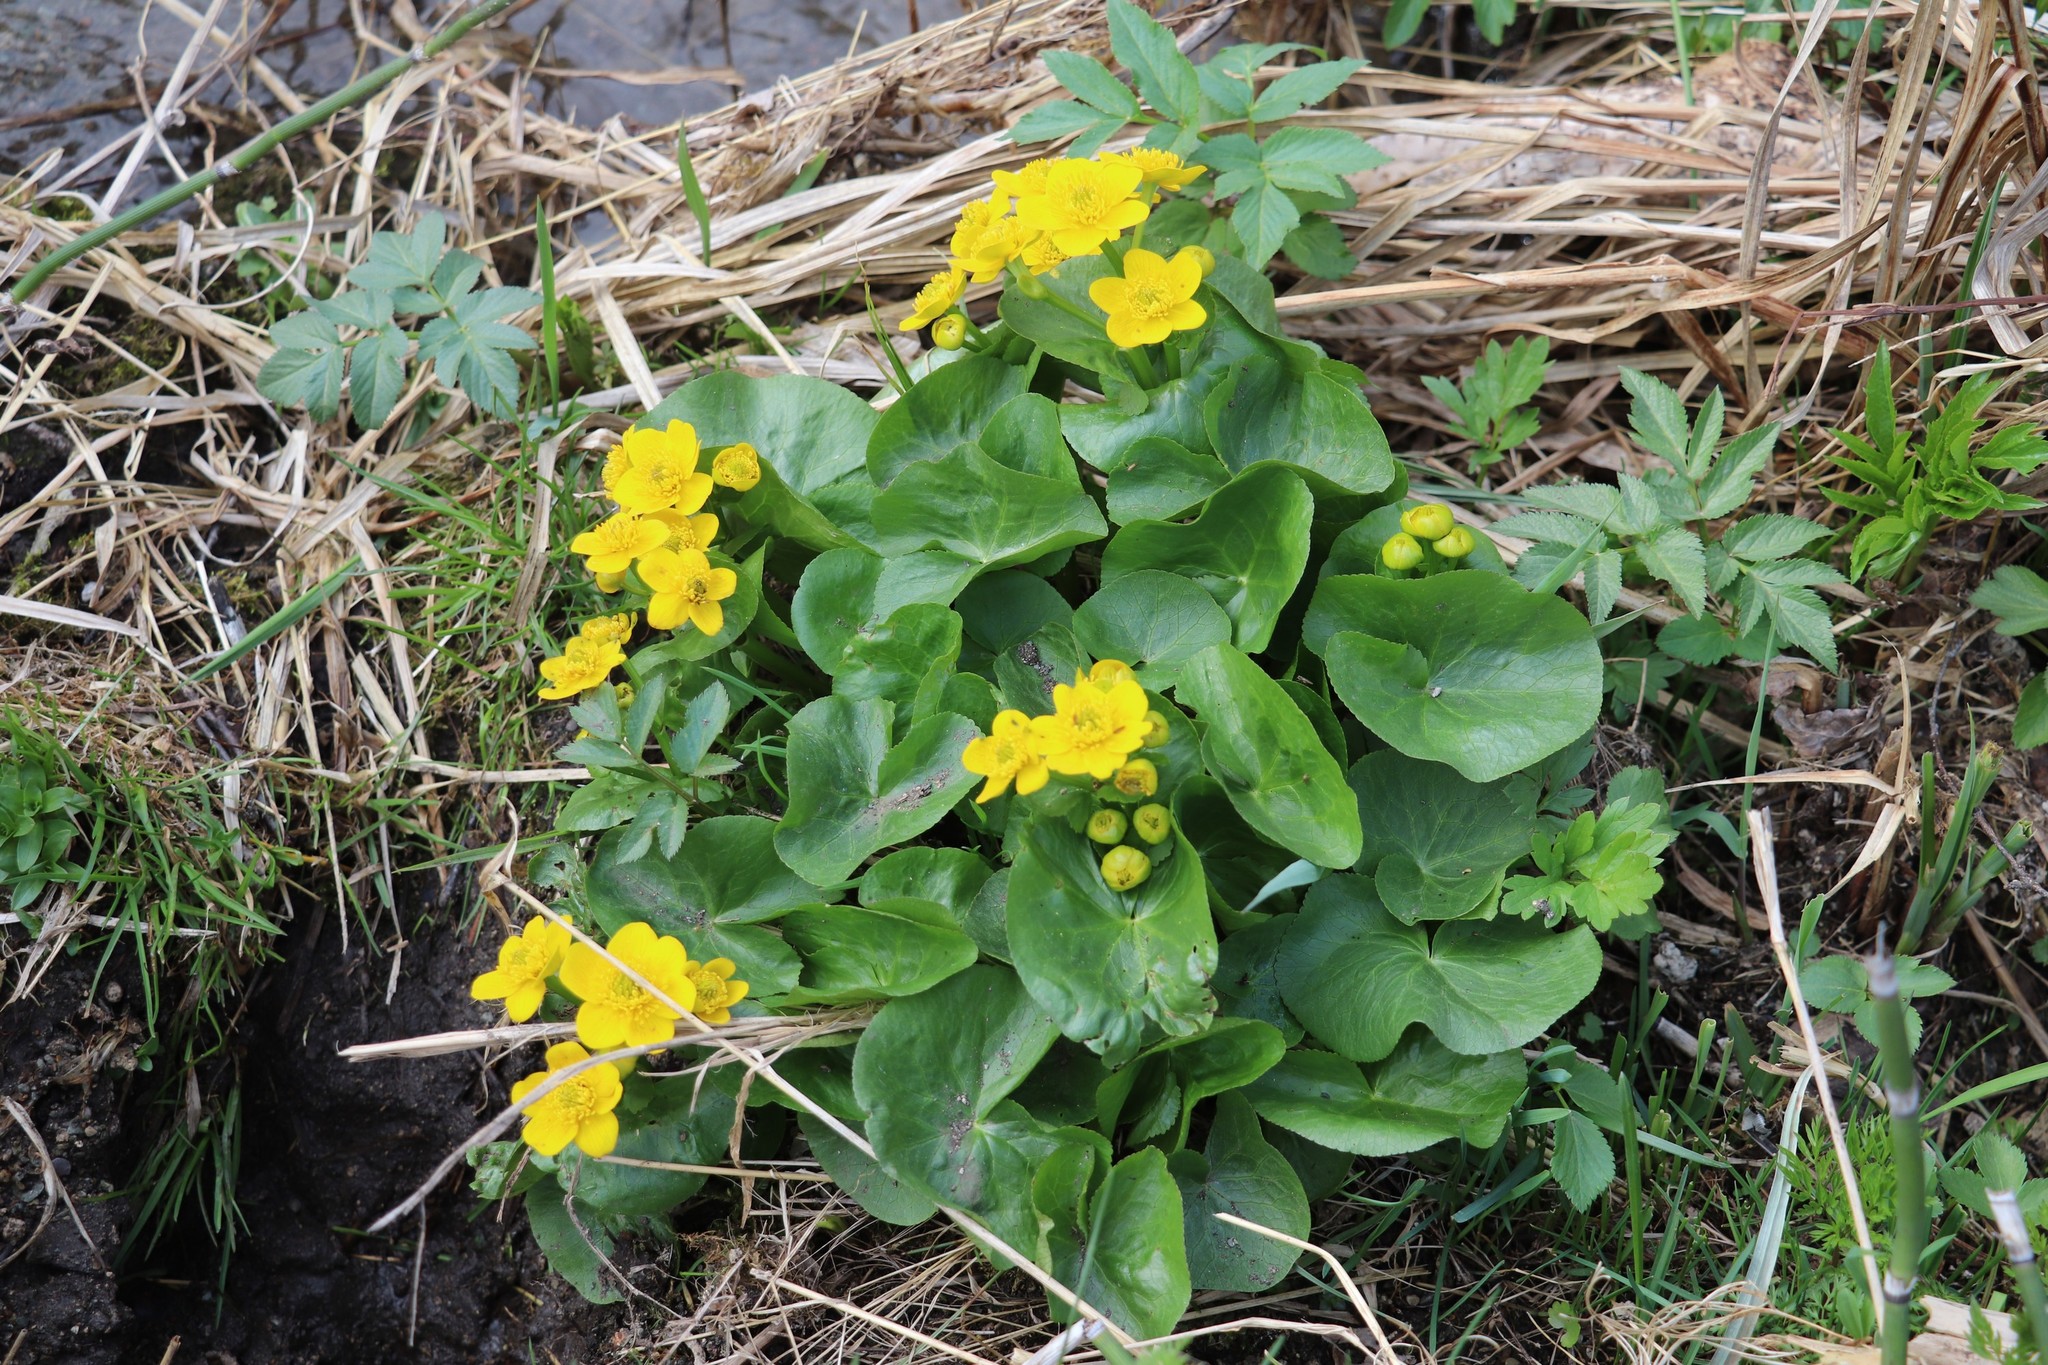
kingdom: Plantae
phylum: Tracheophyta
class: Magnoliopsida
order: Ranunculales
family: Ranunculaceae
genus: Caltha
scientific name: Caltha palustris
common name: Marsh marigold
